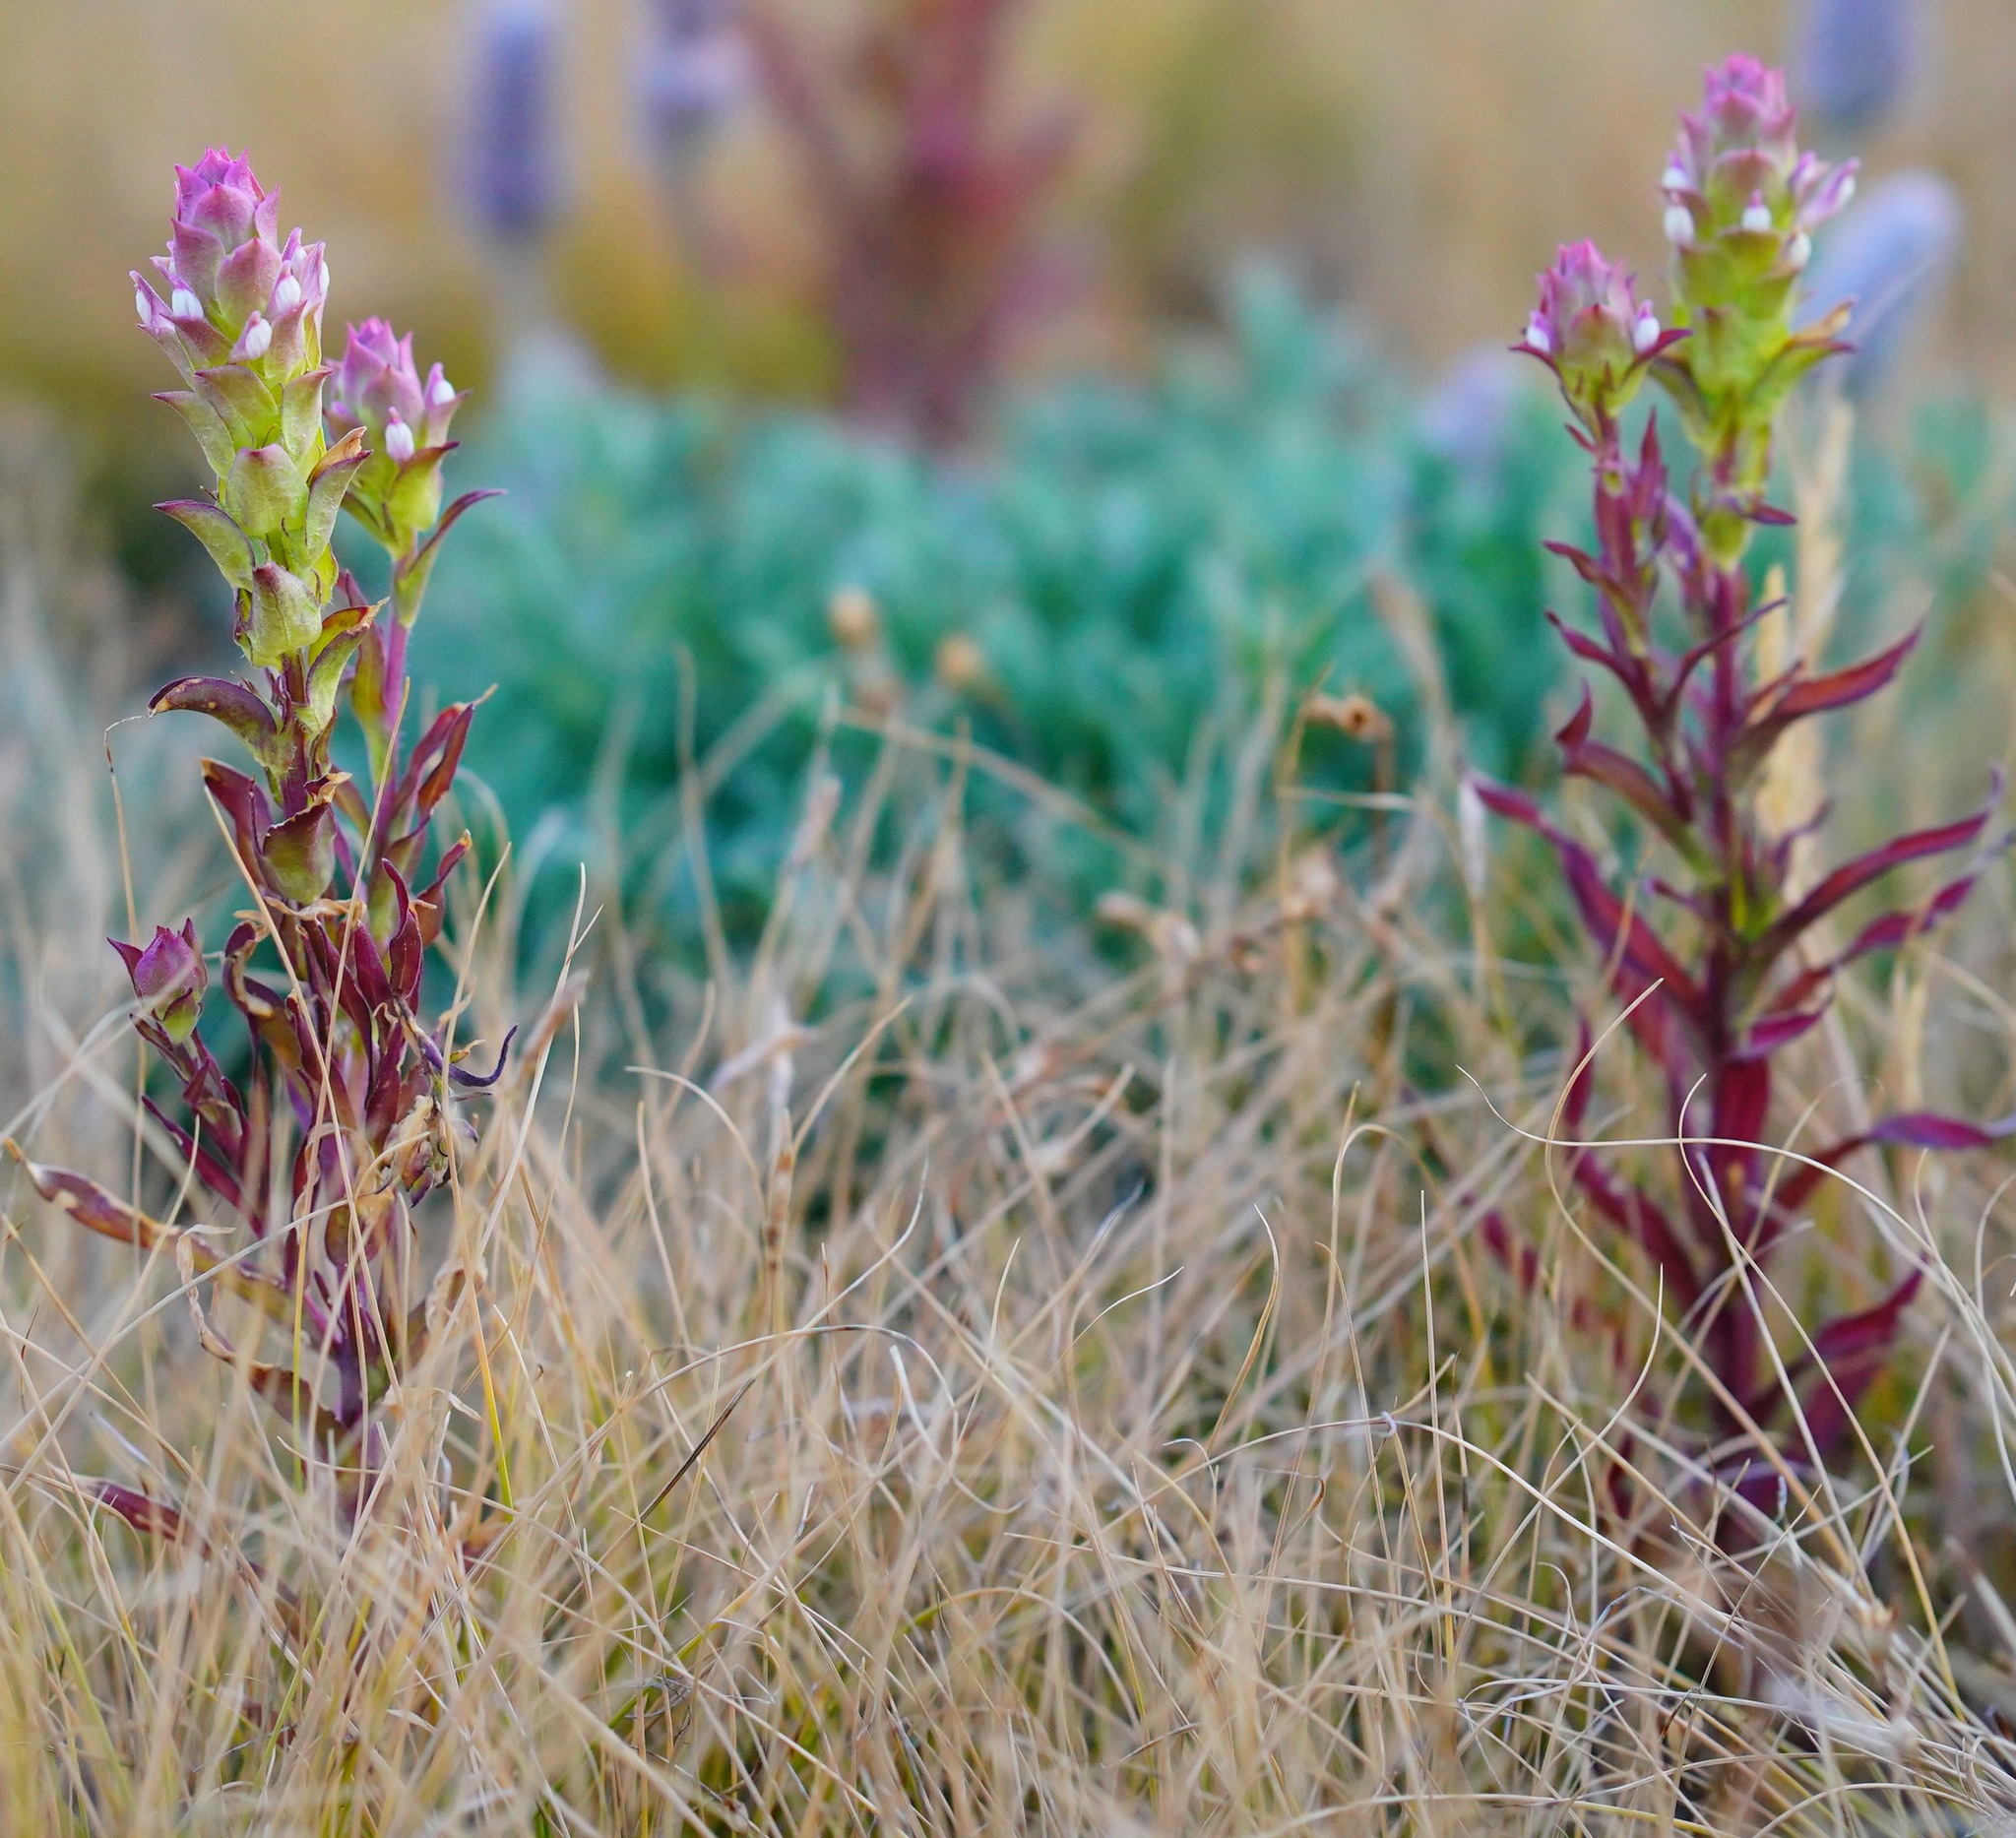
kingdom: Plantae
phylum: Tracheophyta
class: Magnoliopsida
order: Lamiales
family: Orobanchaceae
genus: Orthocarpus
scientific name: Orthocarpus cuspidatus
